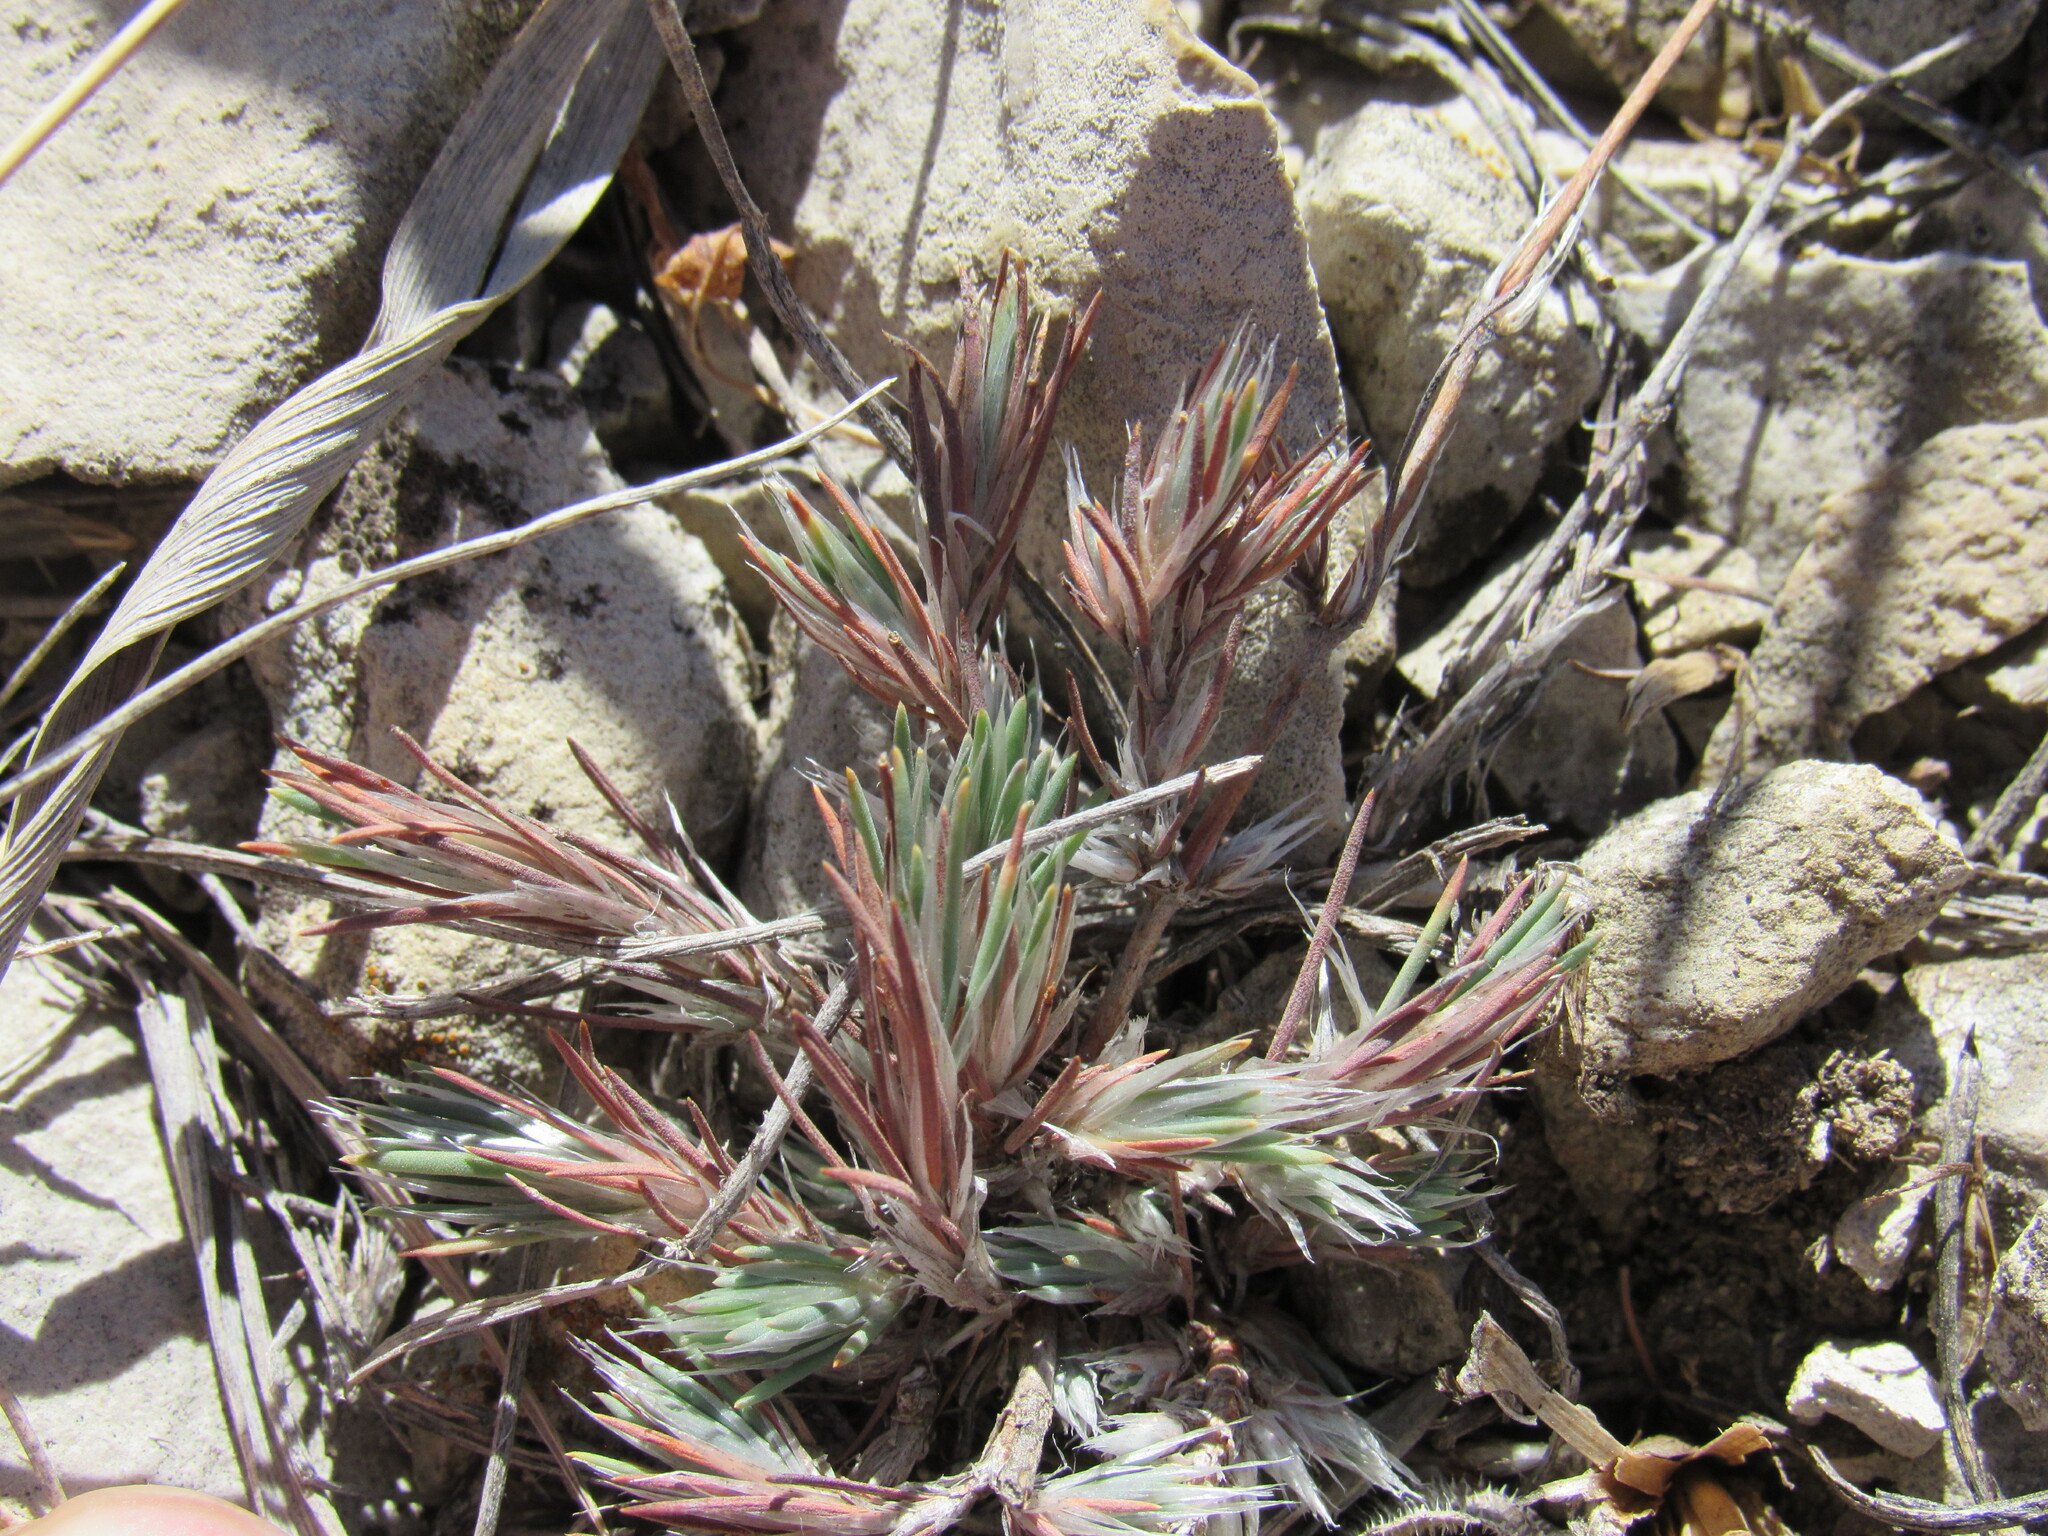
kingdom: Plantae
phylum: Tracheophyta
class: Magnoliopsida
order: Caryophyllales
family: Caryophyllaceae
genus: Paronychia
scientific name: Paronychia jamesii
